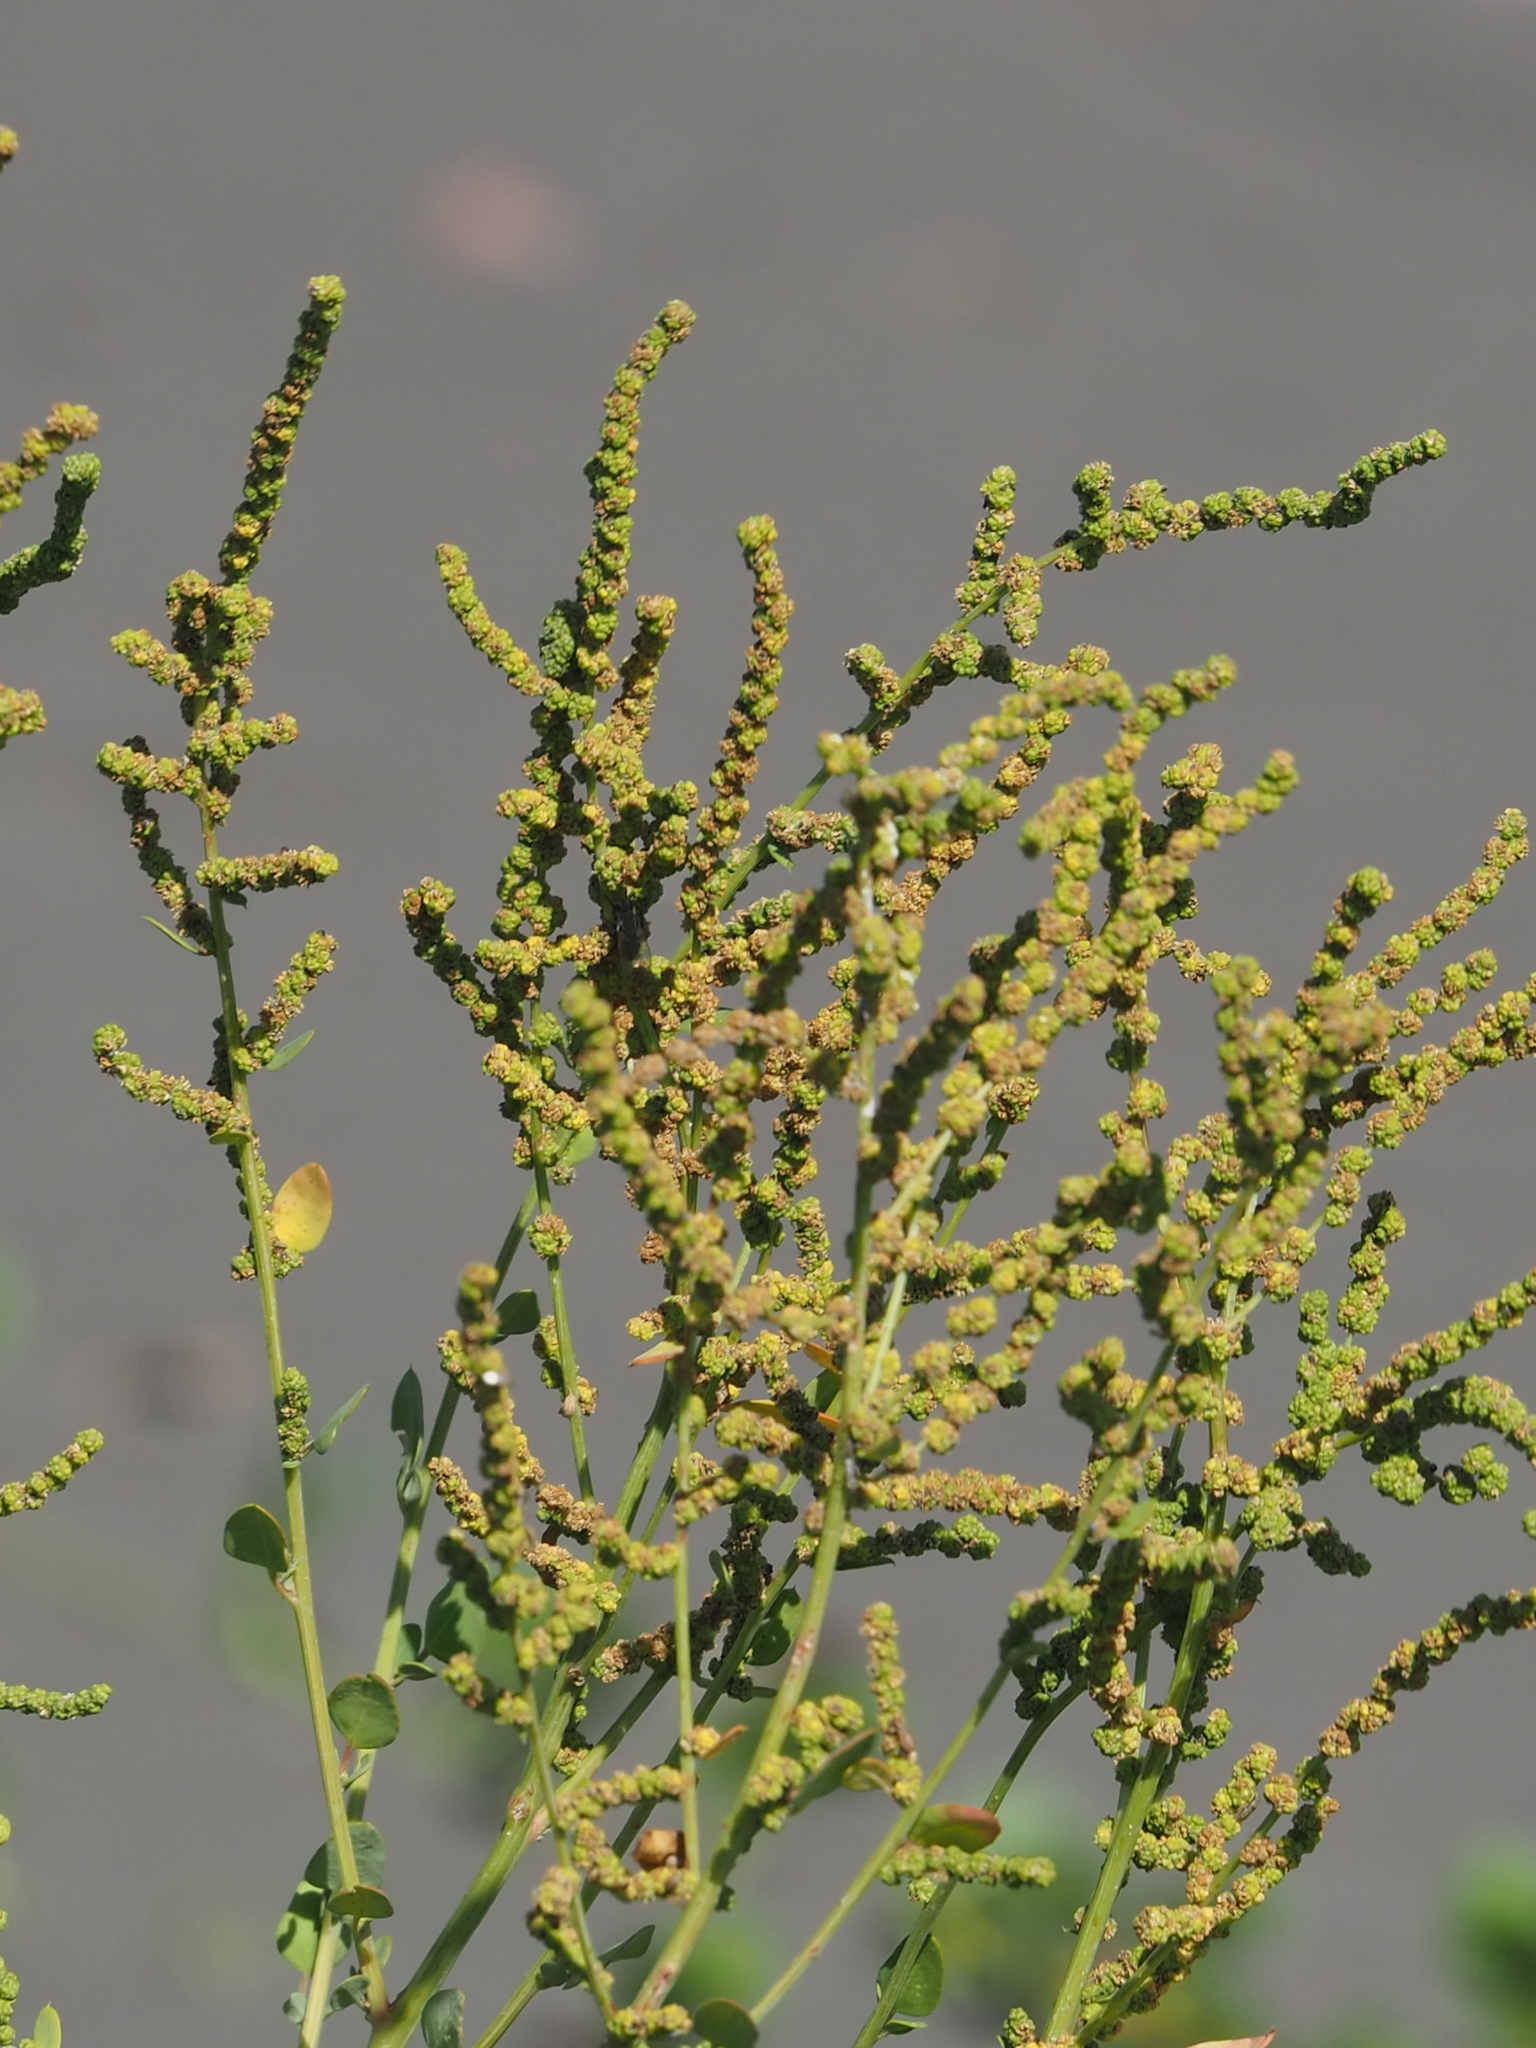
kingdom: Plantae
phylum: Tracheophyta
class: Magnoliopsida
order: Caryophyllales
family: Amaranthaceae
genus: Chenopodium
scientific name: Chenopodium acuminatum
